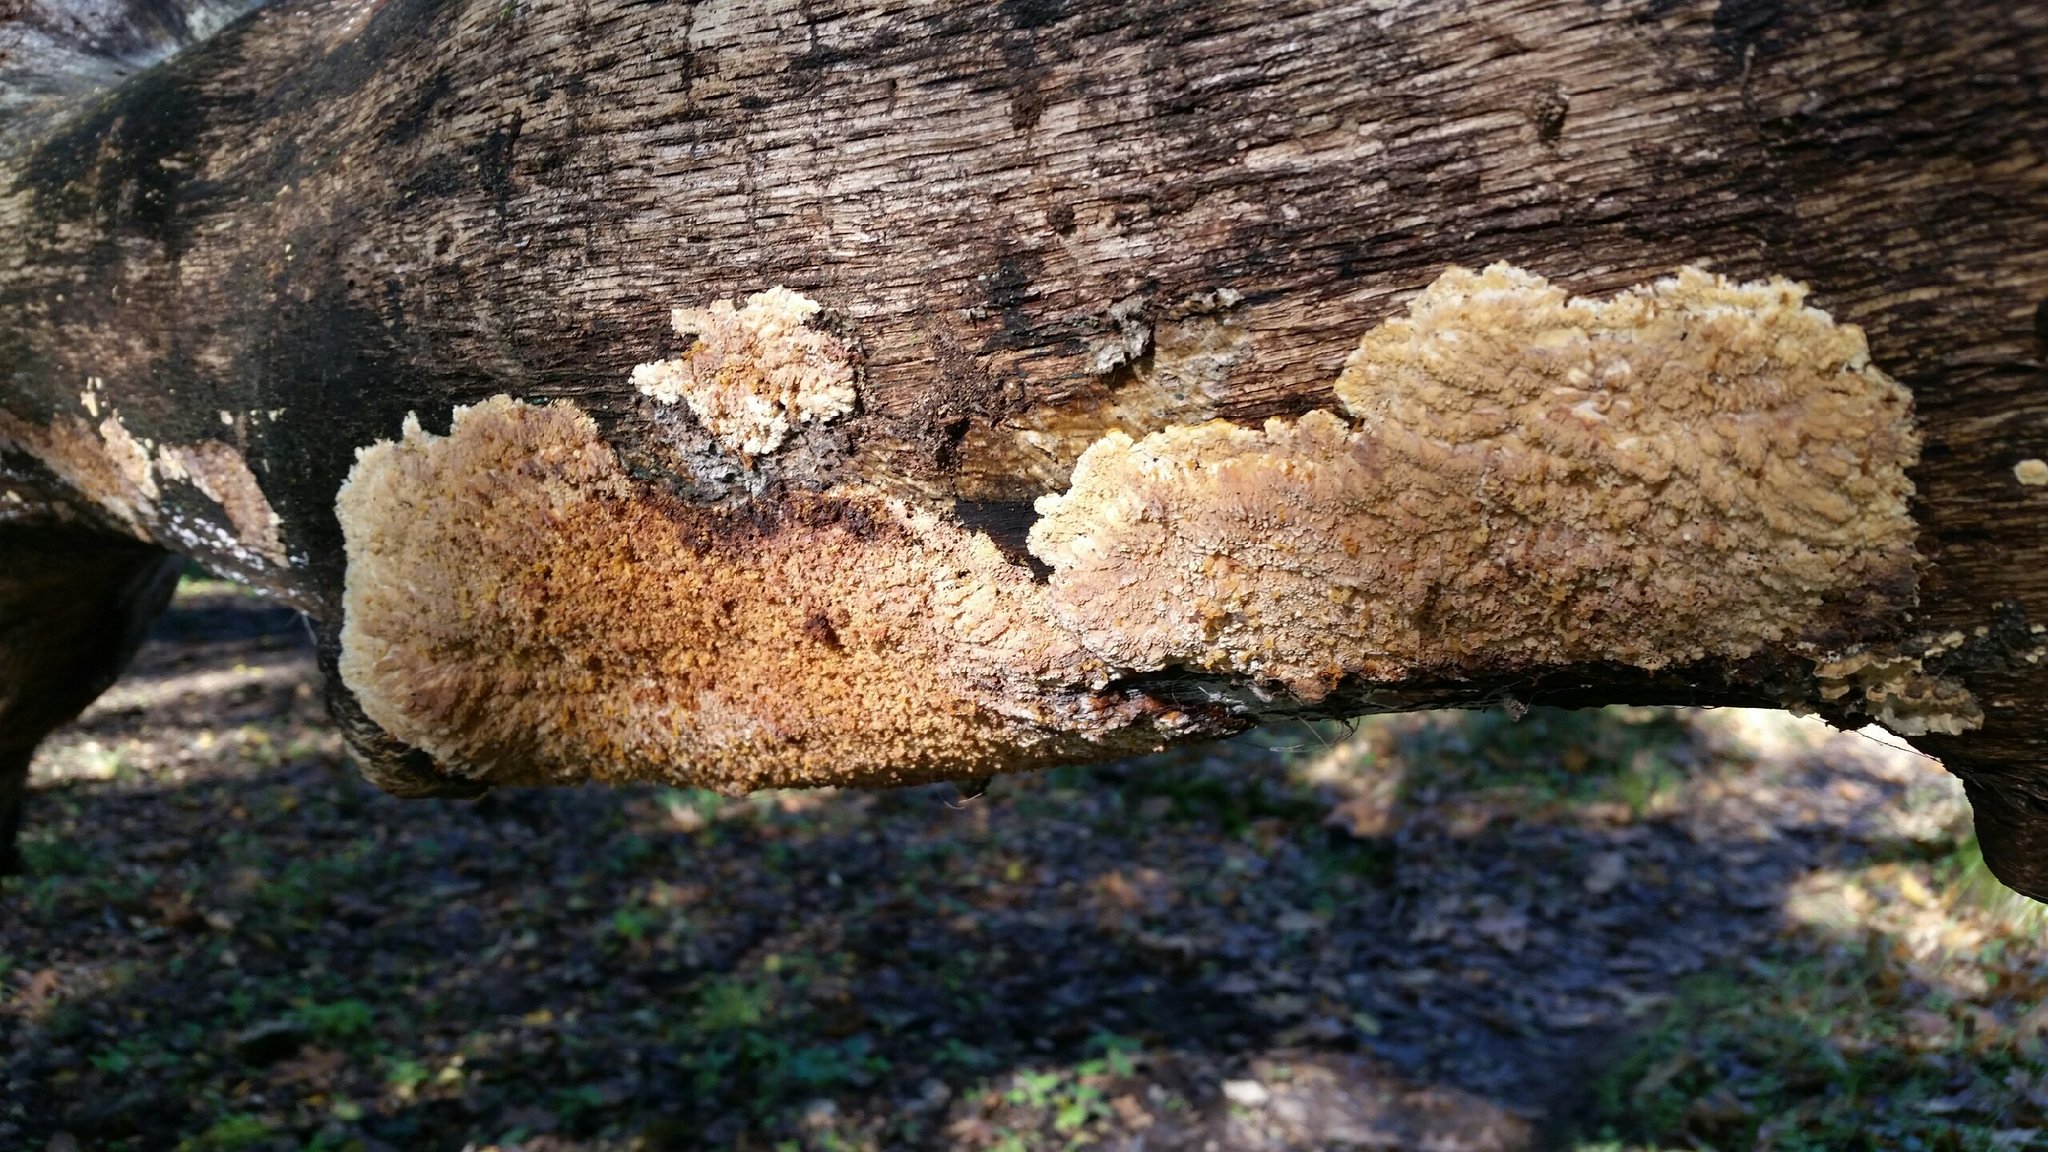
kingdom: Fungi
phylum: Basidiomycota
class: Agaricomycetes
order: Polyporales
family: Meruliaceae
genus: Phlebia
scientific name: Phlebia radiata
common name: Wrinkled crust
